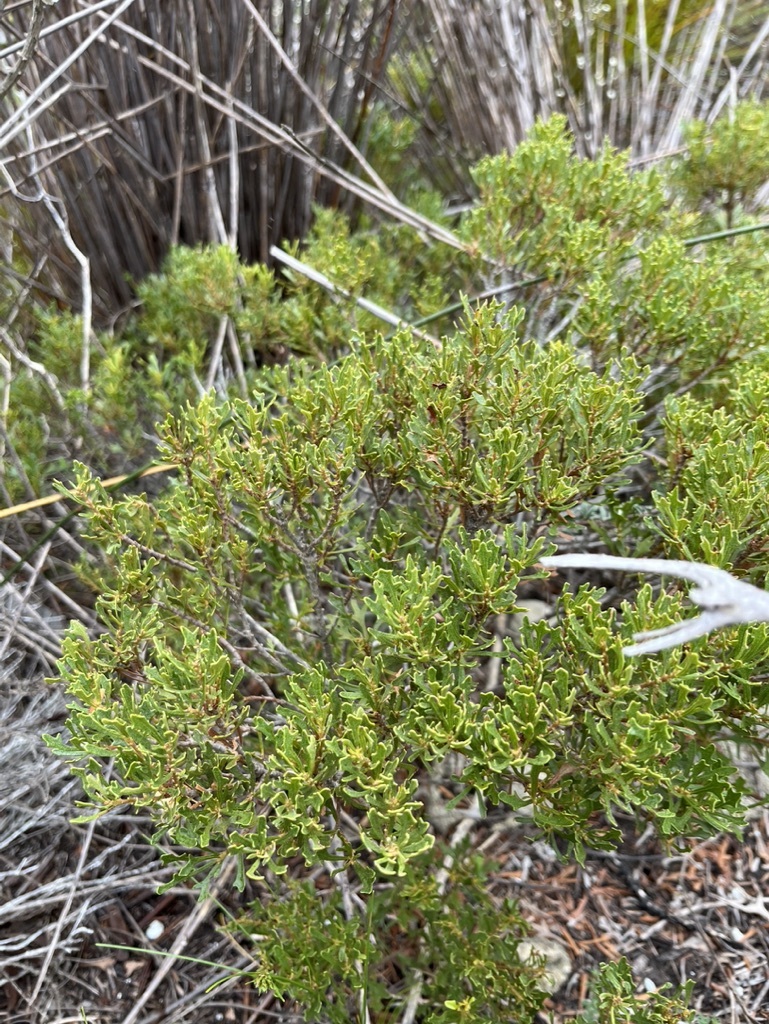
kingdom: Plantae
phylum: Tracheophyta
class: Magnoliopsida
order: Fagales
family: Myricaceae
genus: Morella
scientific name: Morella quercifolia
